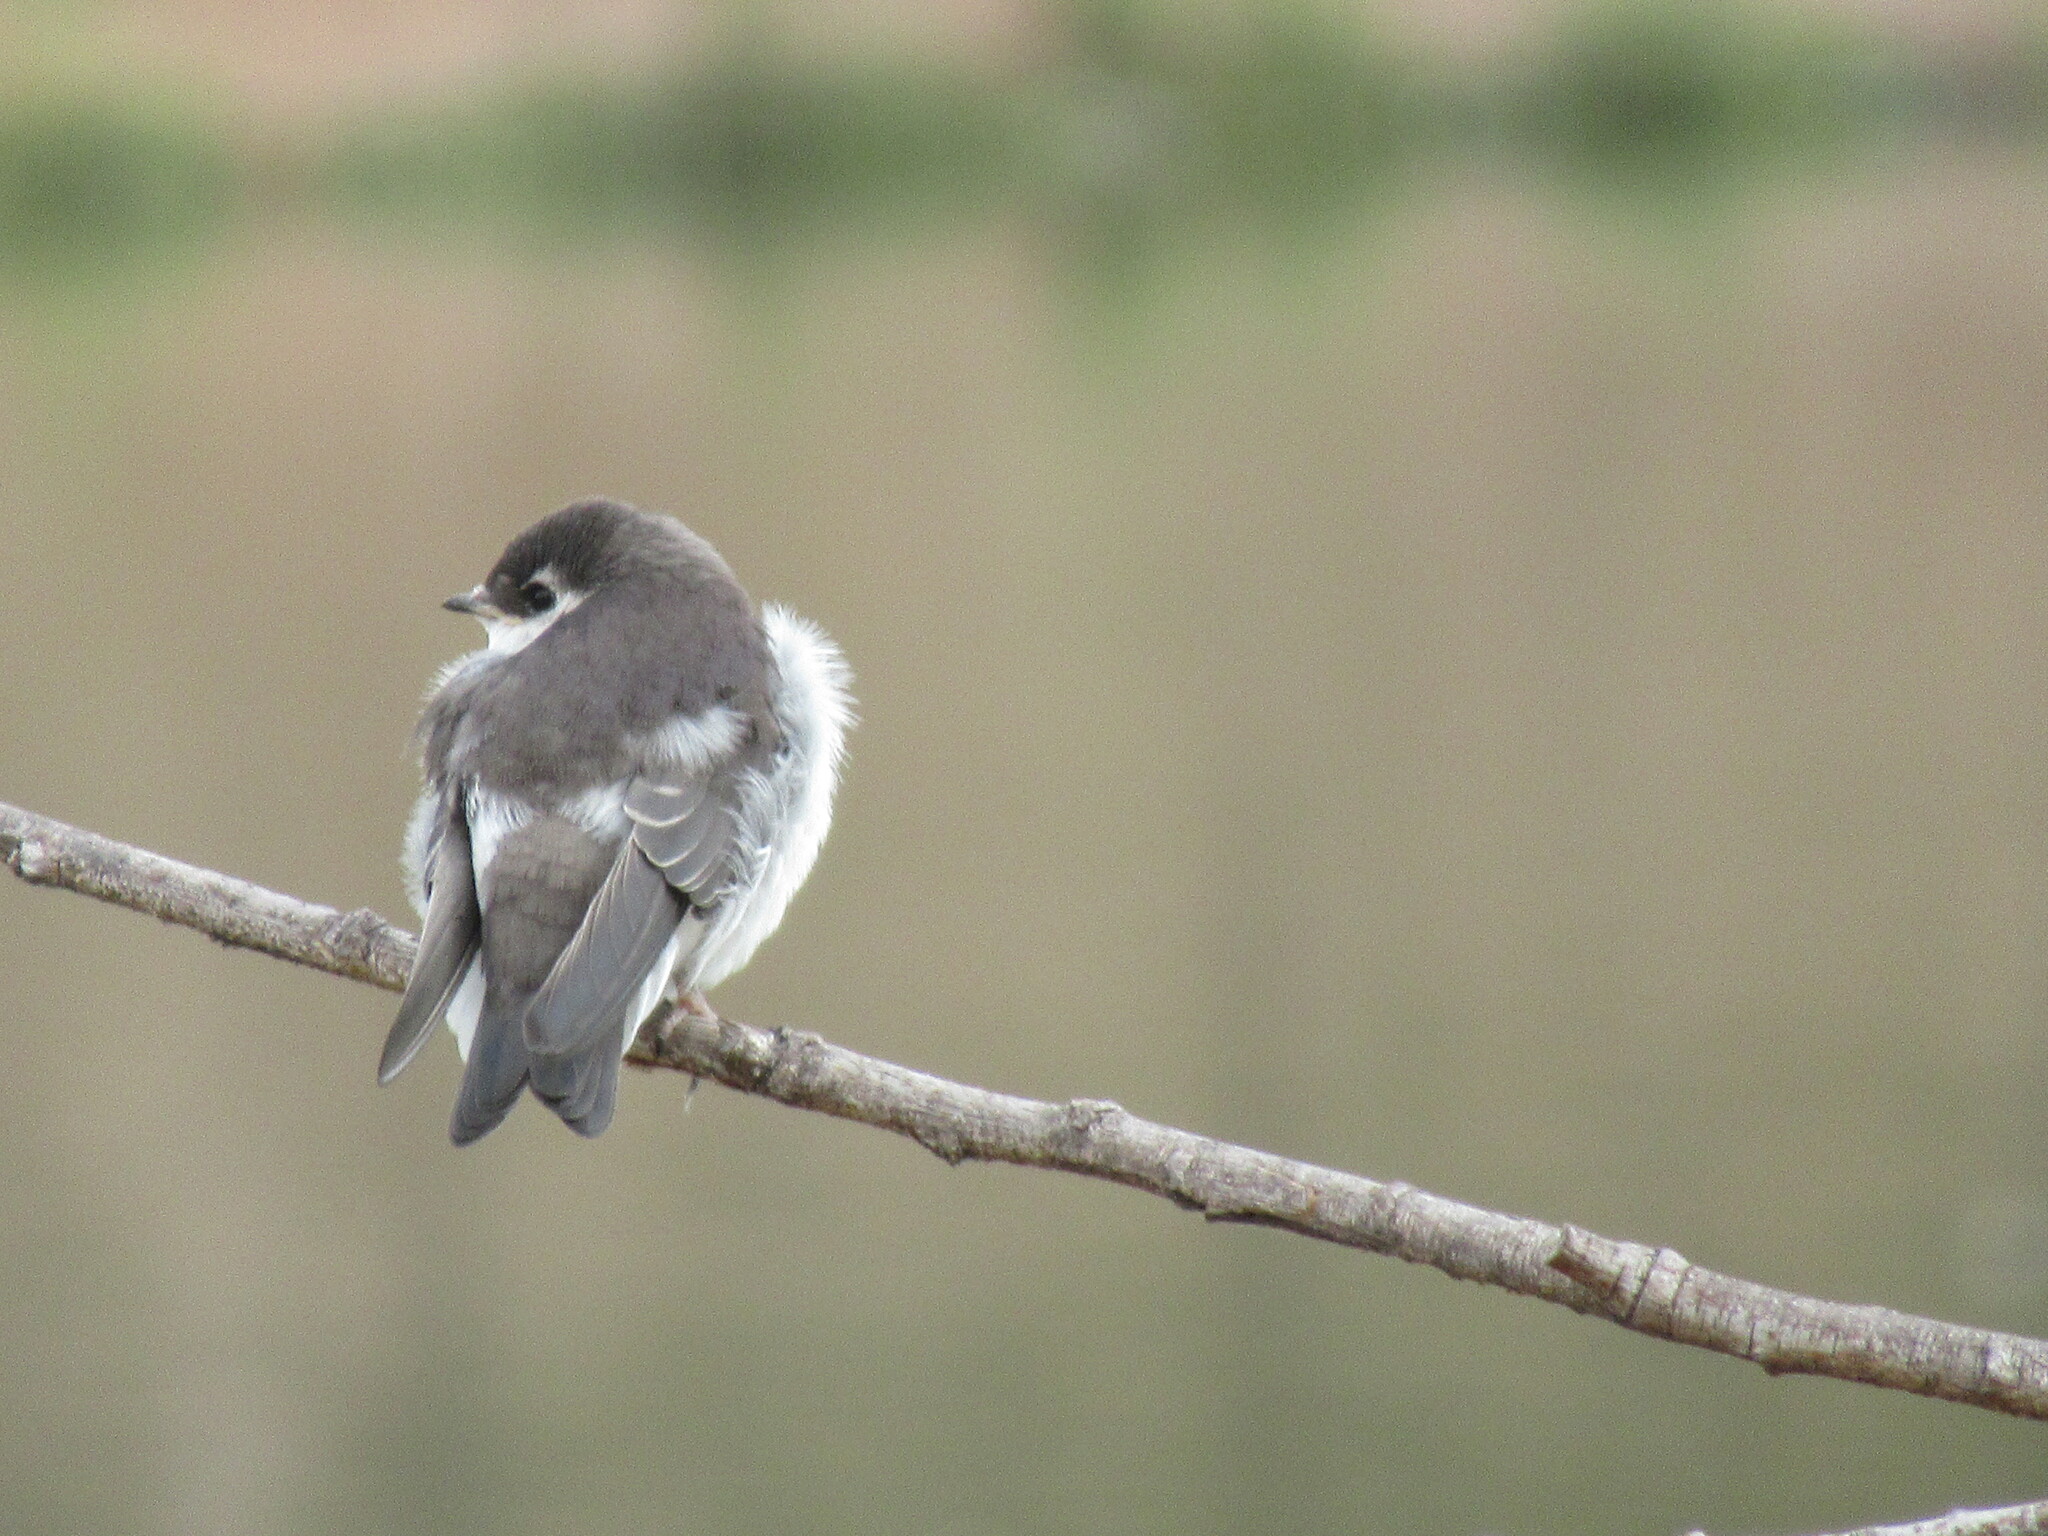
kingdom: Animalia
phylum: Chordata
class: Aves
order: Passeriformes
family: Hirundinidae
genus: Tachycineta
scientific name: Tachycineta thalassina
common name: Violet-green swallow
